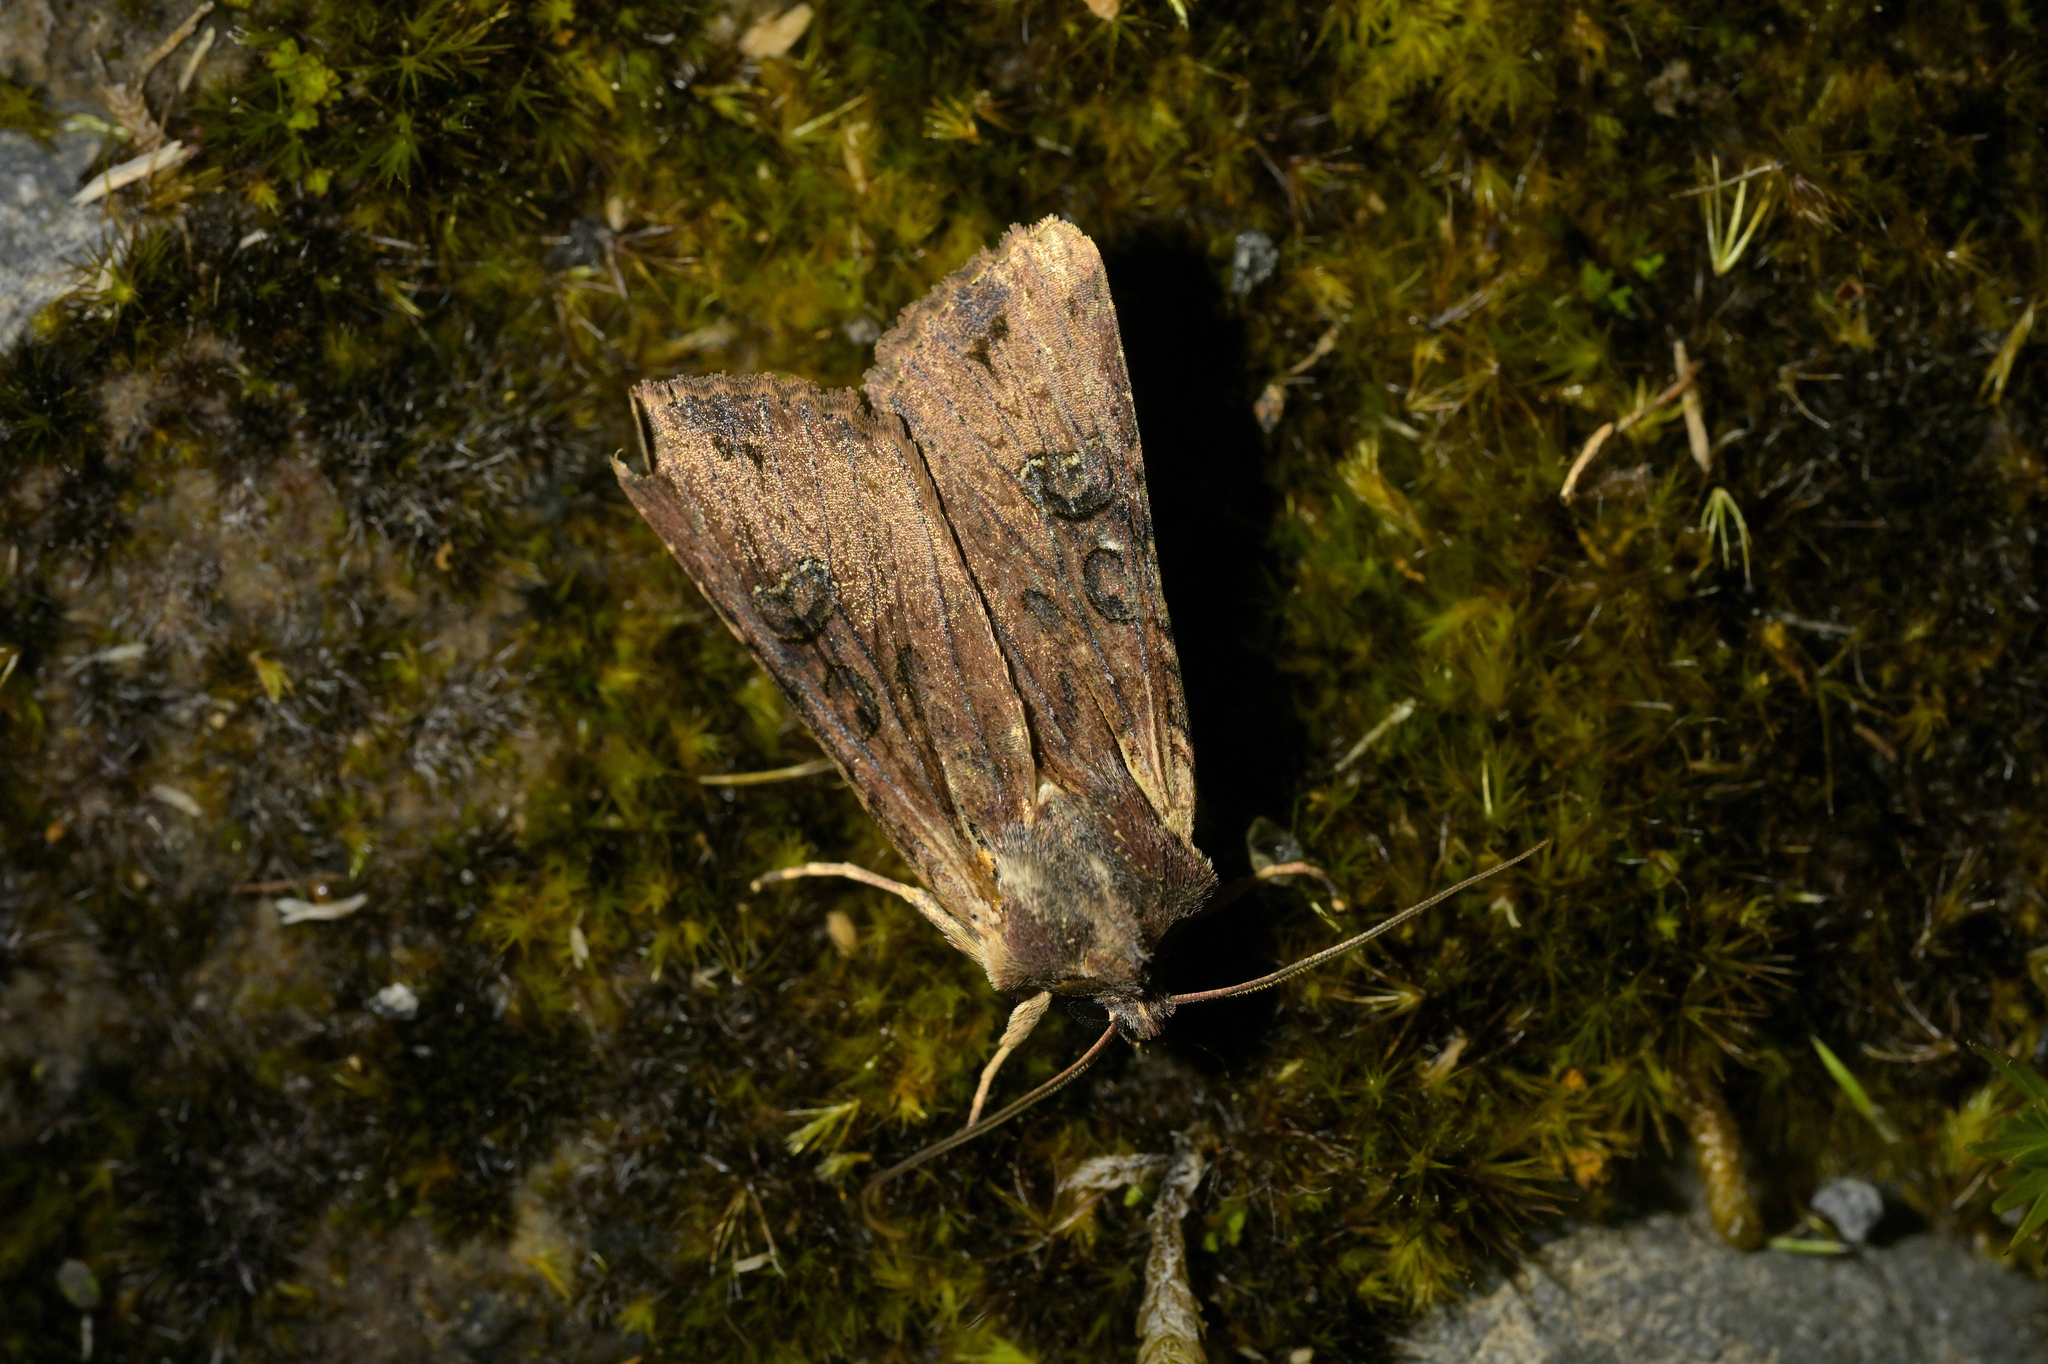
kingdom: Animalia
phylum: Arthropoda
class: Insecta
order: Lepidoptera
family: Noctuidae
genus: Ichneutica
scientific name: Ichneutica omoplaca
